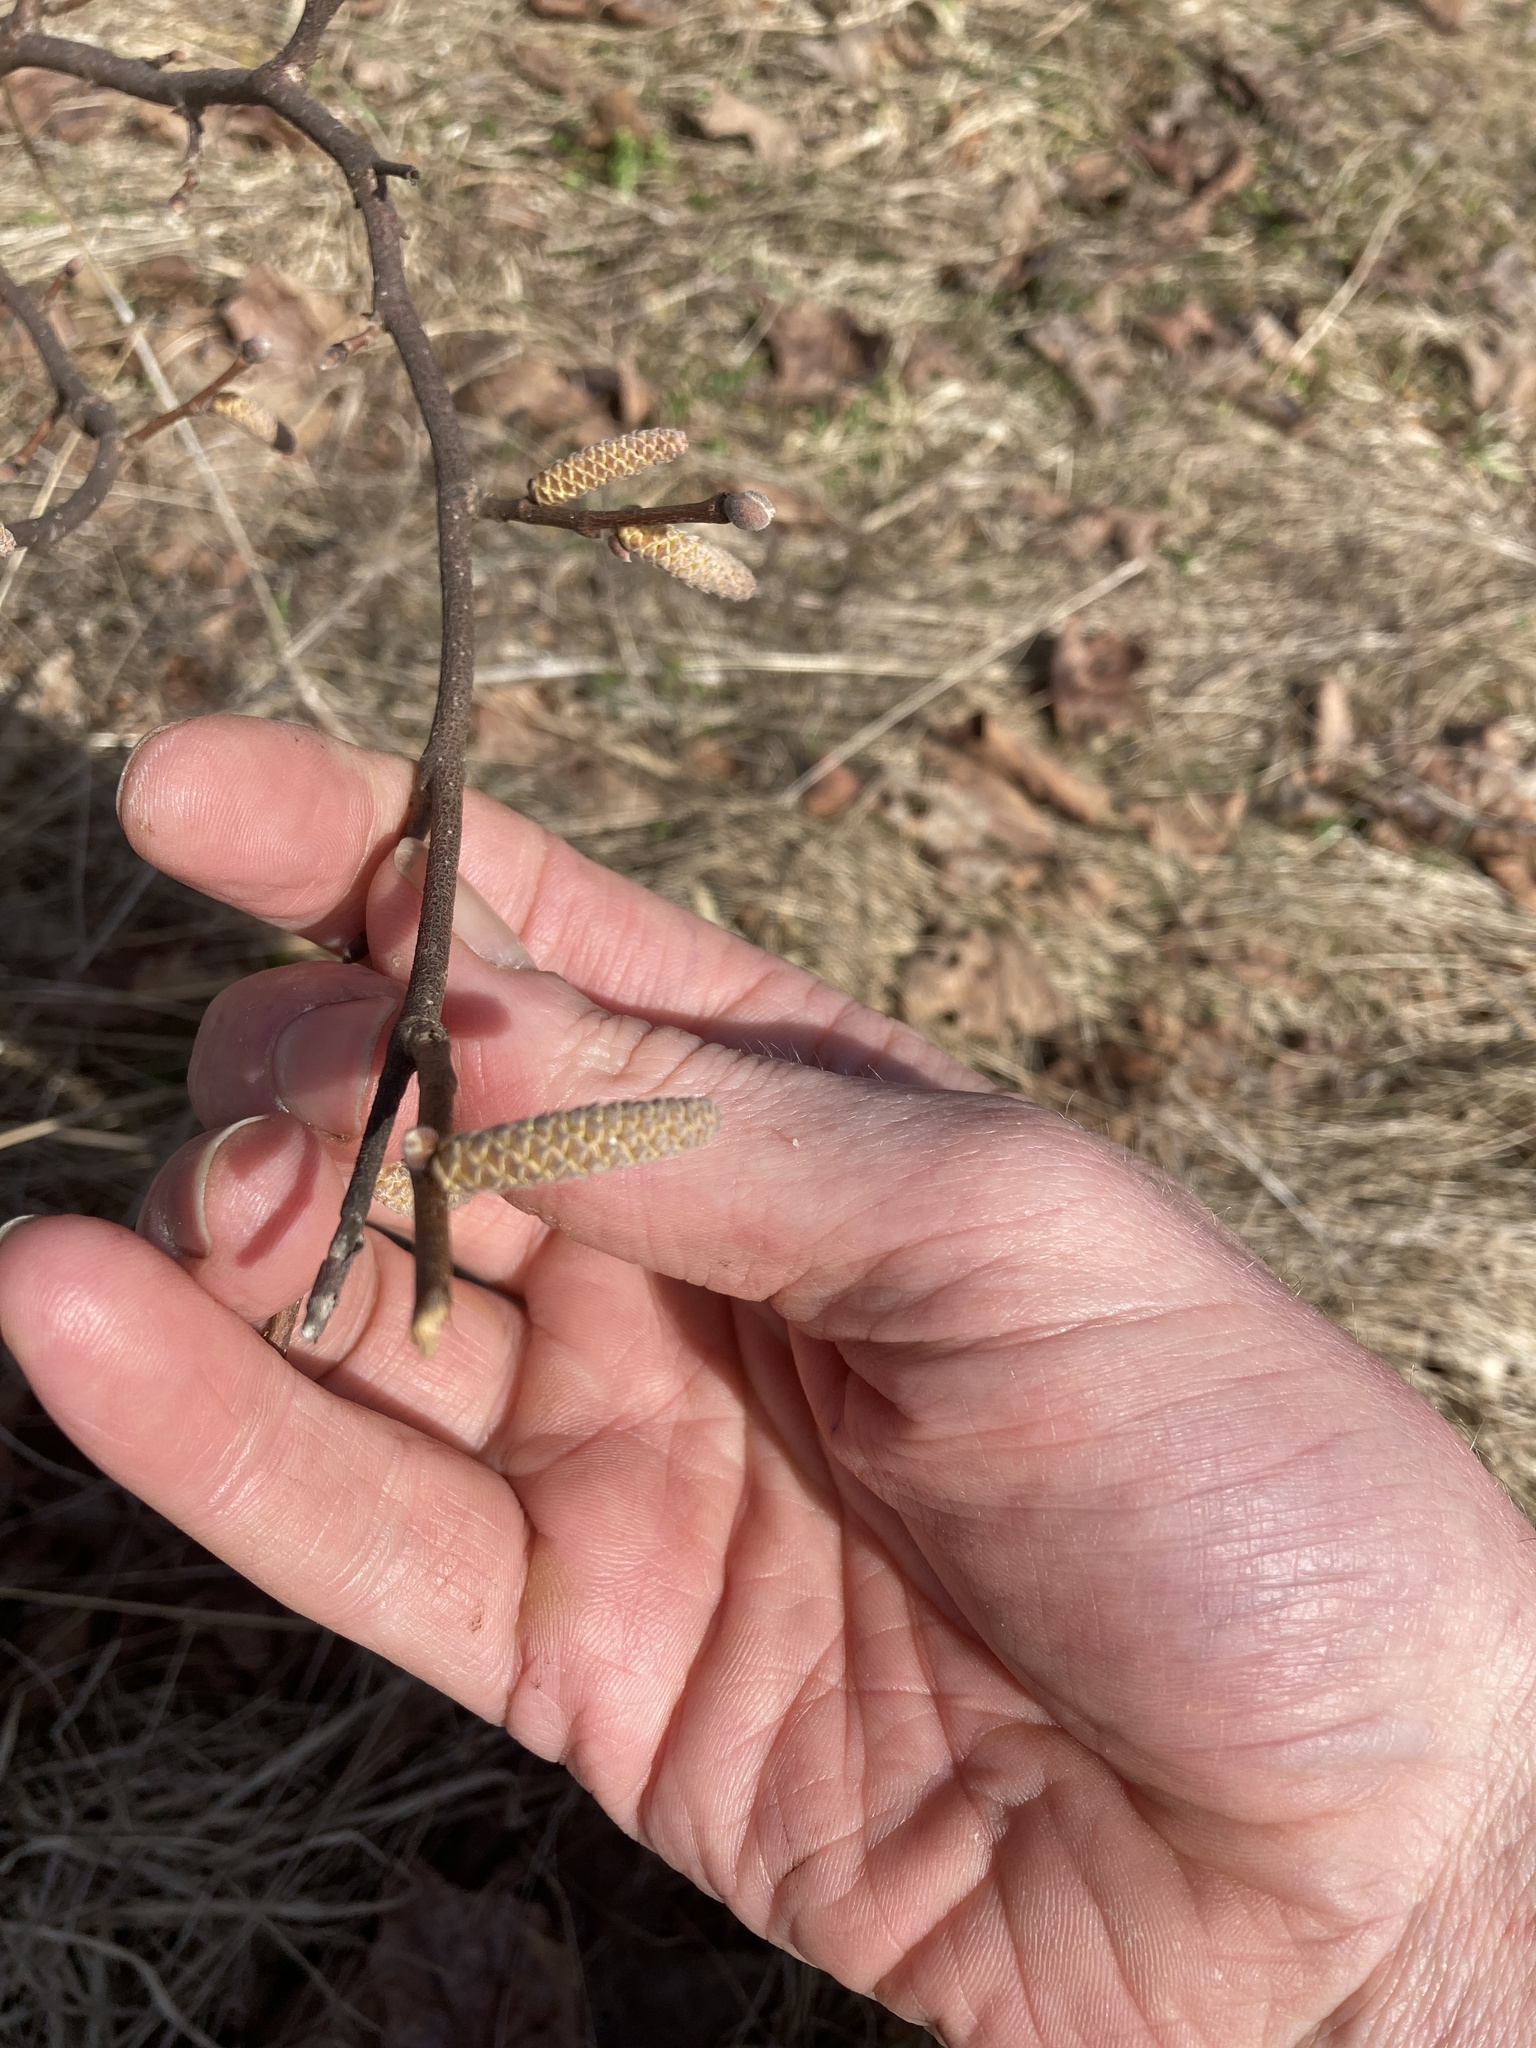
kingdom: Plantae
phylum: Tracheophyta
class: Magnoliopsida
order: Fagales
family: Betulaceae
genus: Corylus
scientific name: Corylus cornuta
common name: Beaked hazel
